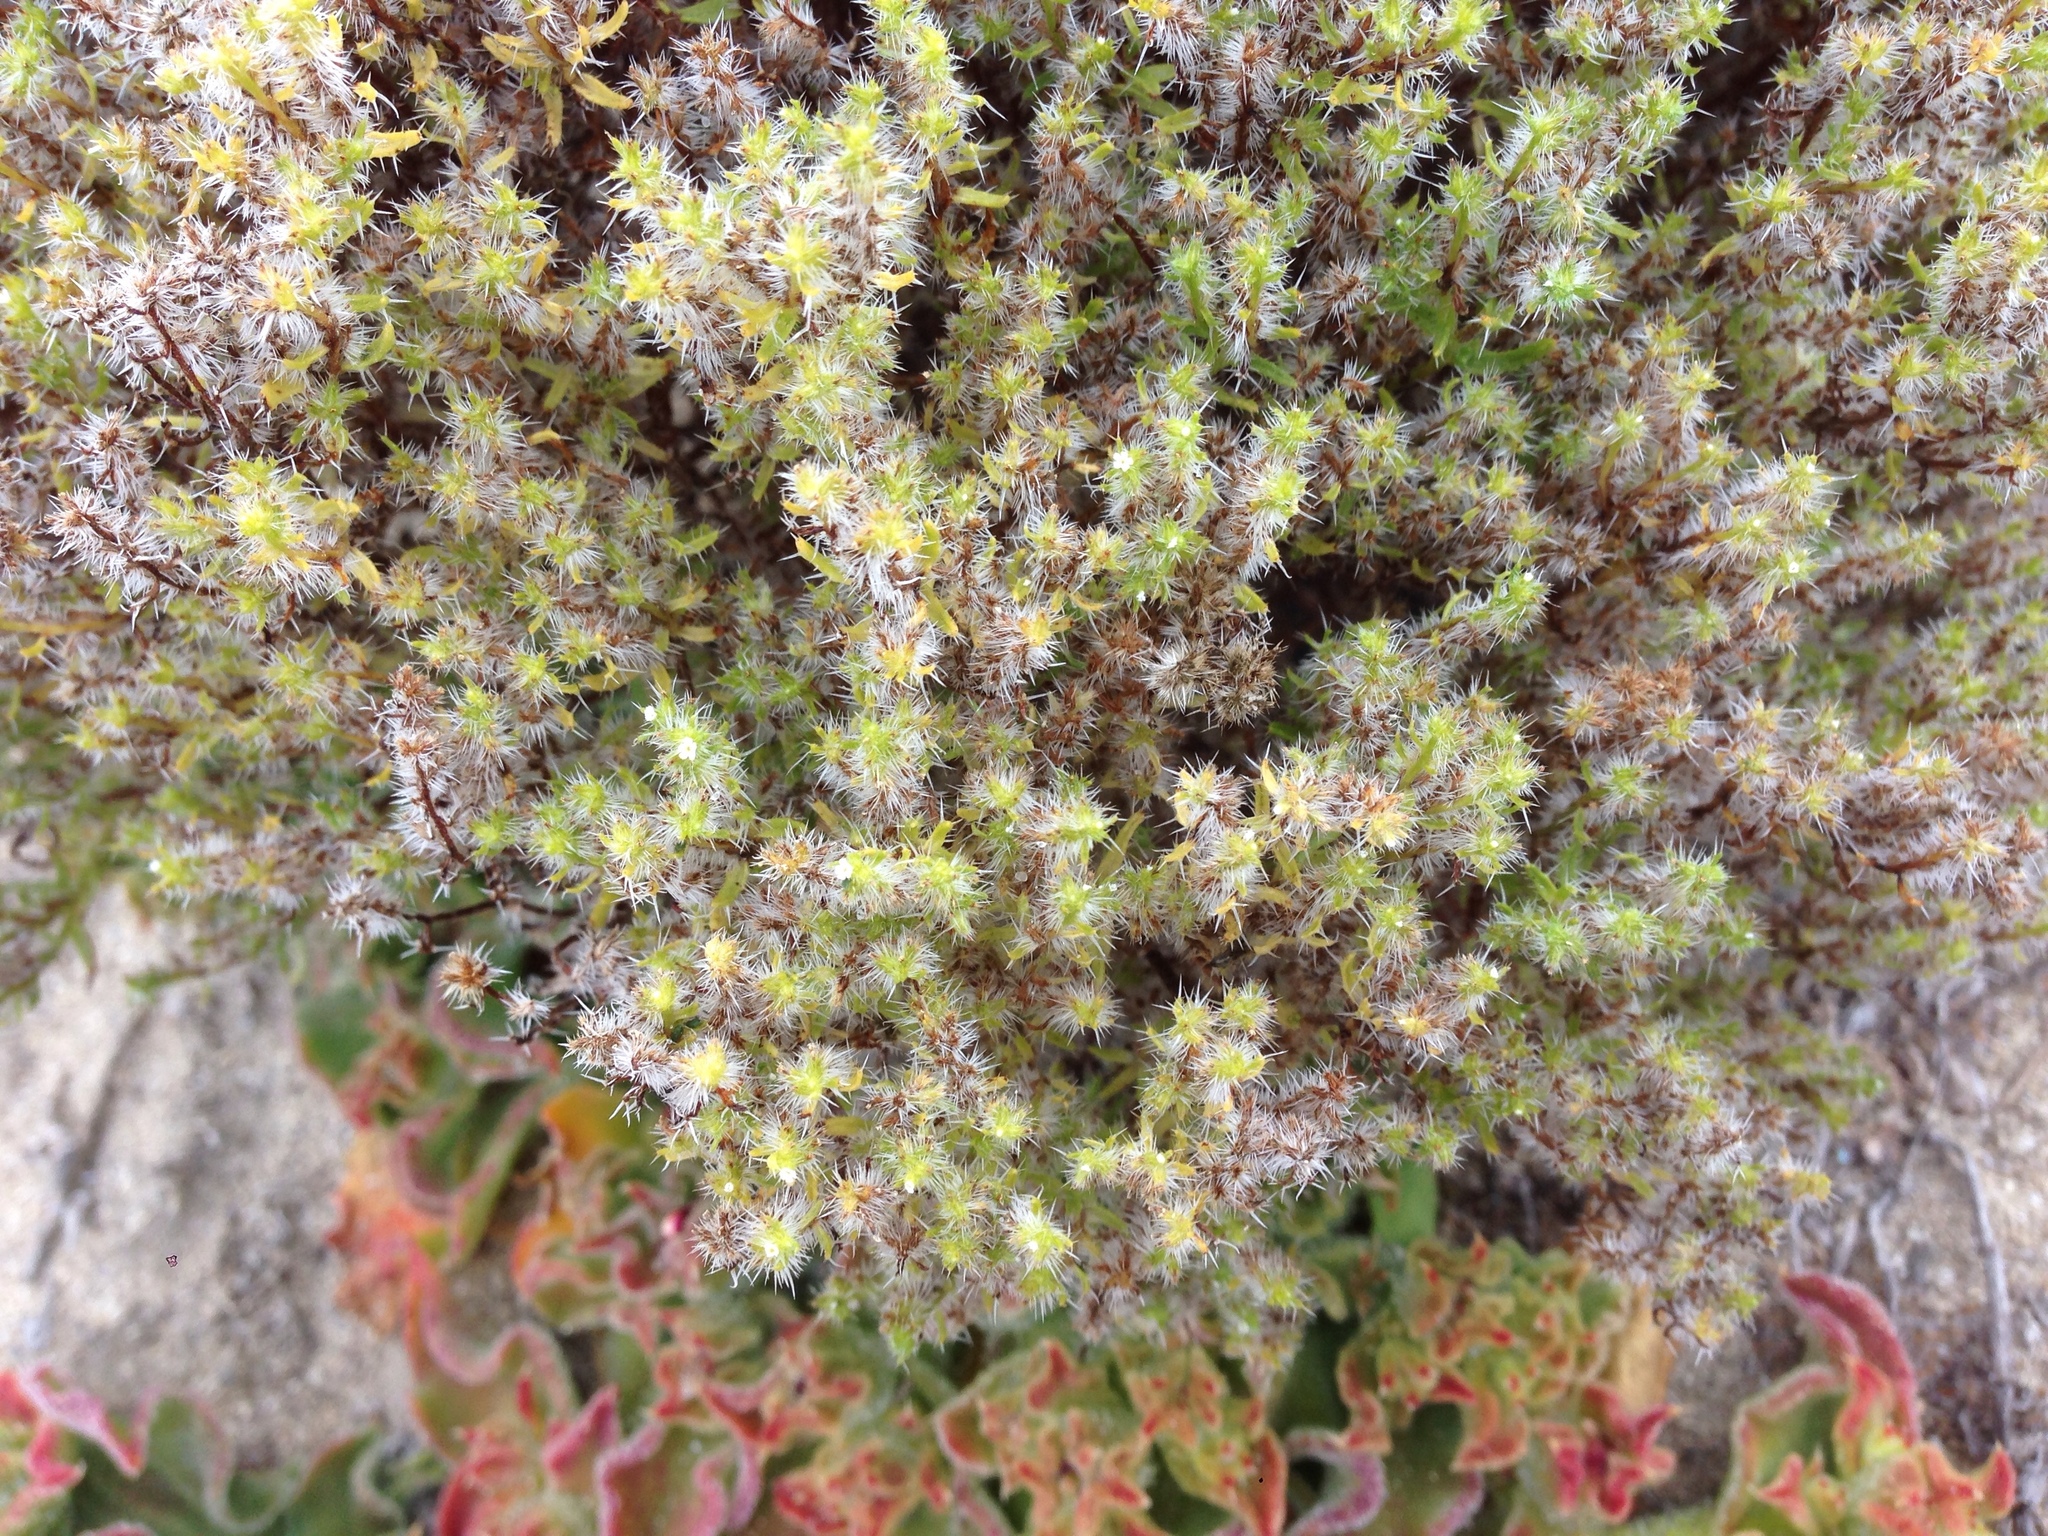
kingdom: Plantae
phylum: Tracheophyta
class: Magnoliopsida
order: Boraginales
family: Boraginaceae
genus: Cryptantha
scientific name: Cryptantha maritima
